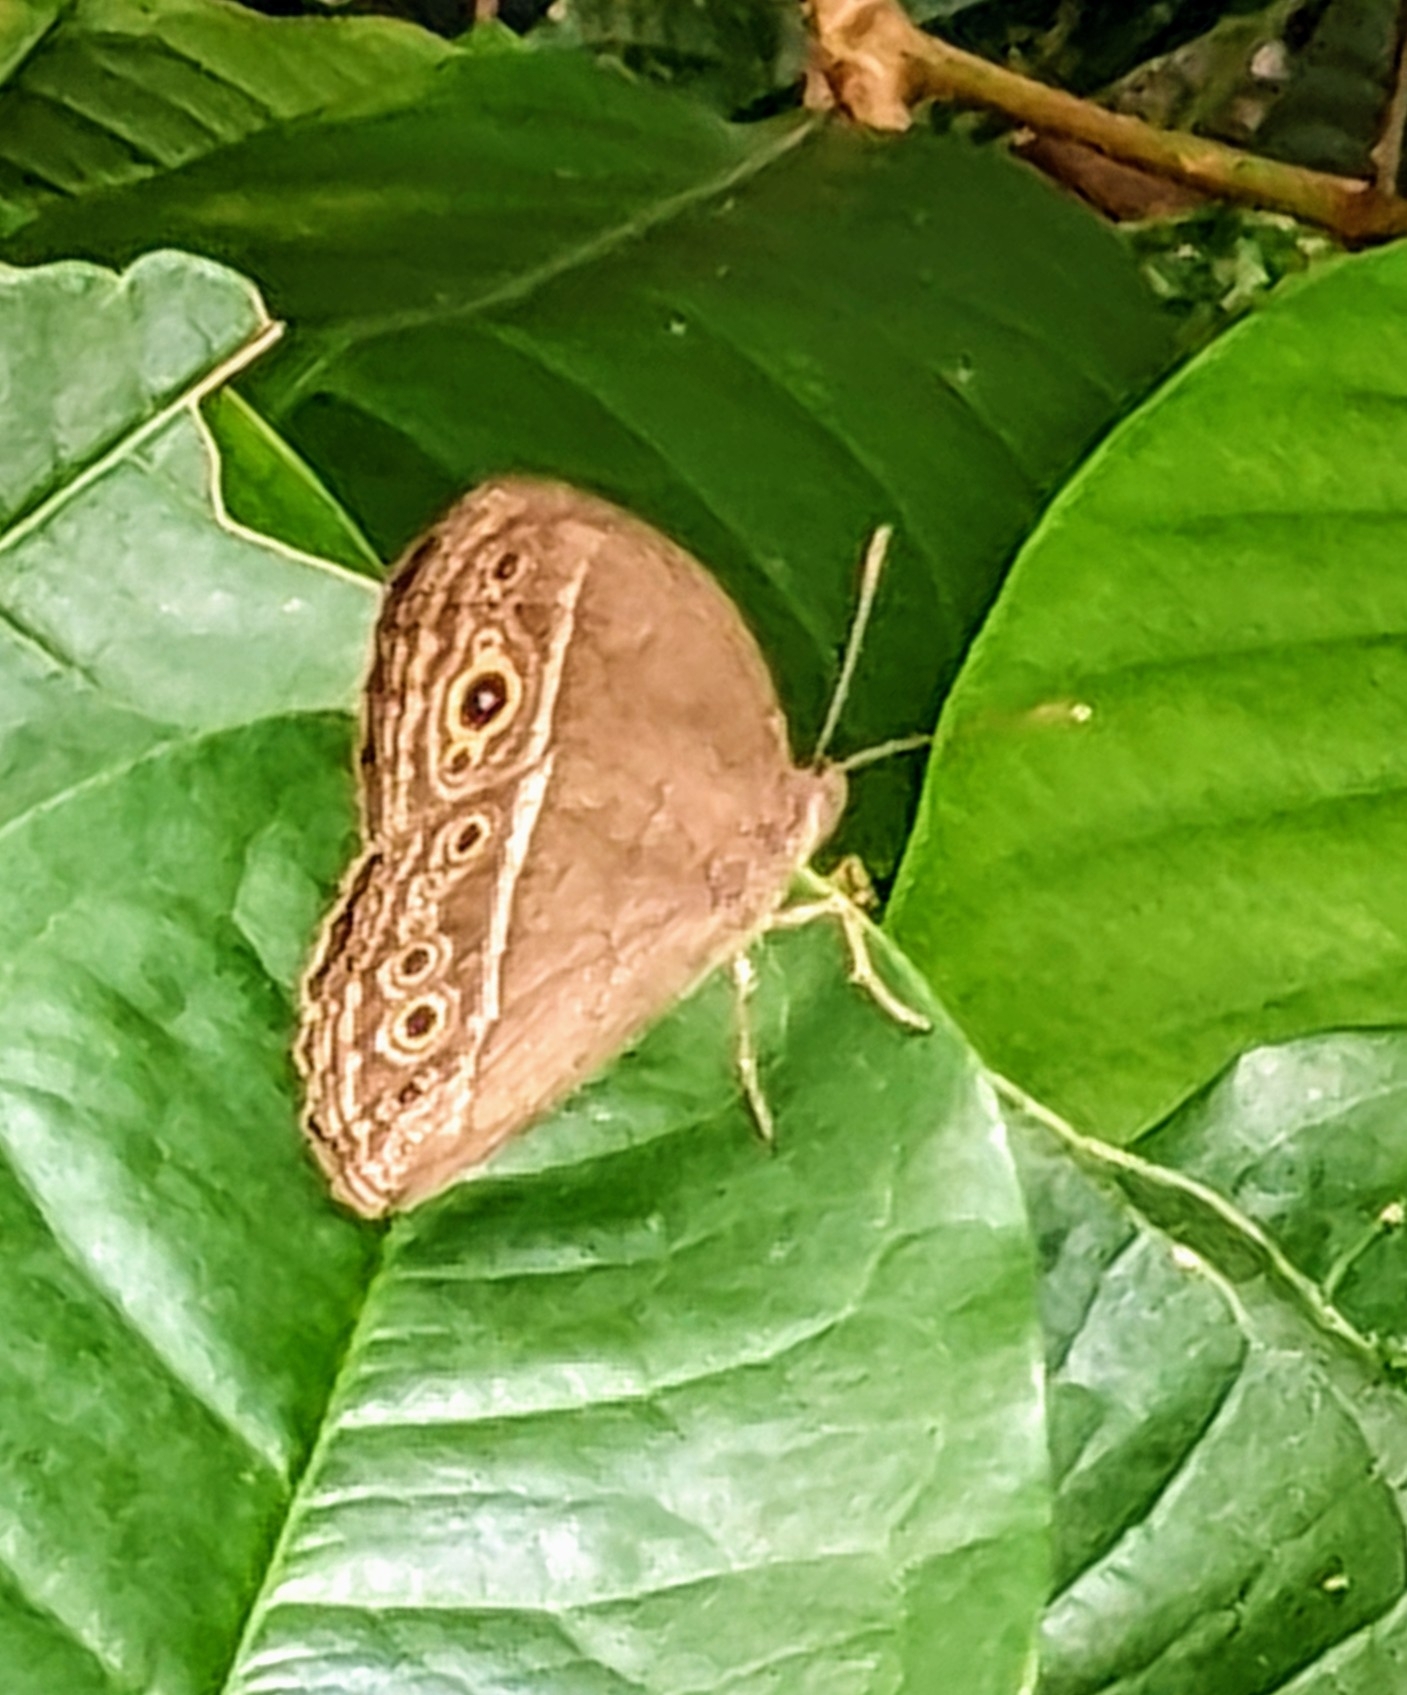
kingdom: Animalia
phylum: Arthropoda
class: Insecta
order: Lepidoptera
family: Nymphalidae
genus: Mycalesis
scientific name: Mycalesis perseoides
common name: Burmese bushbrown
